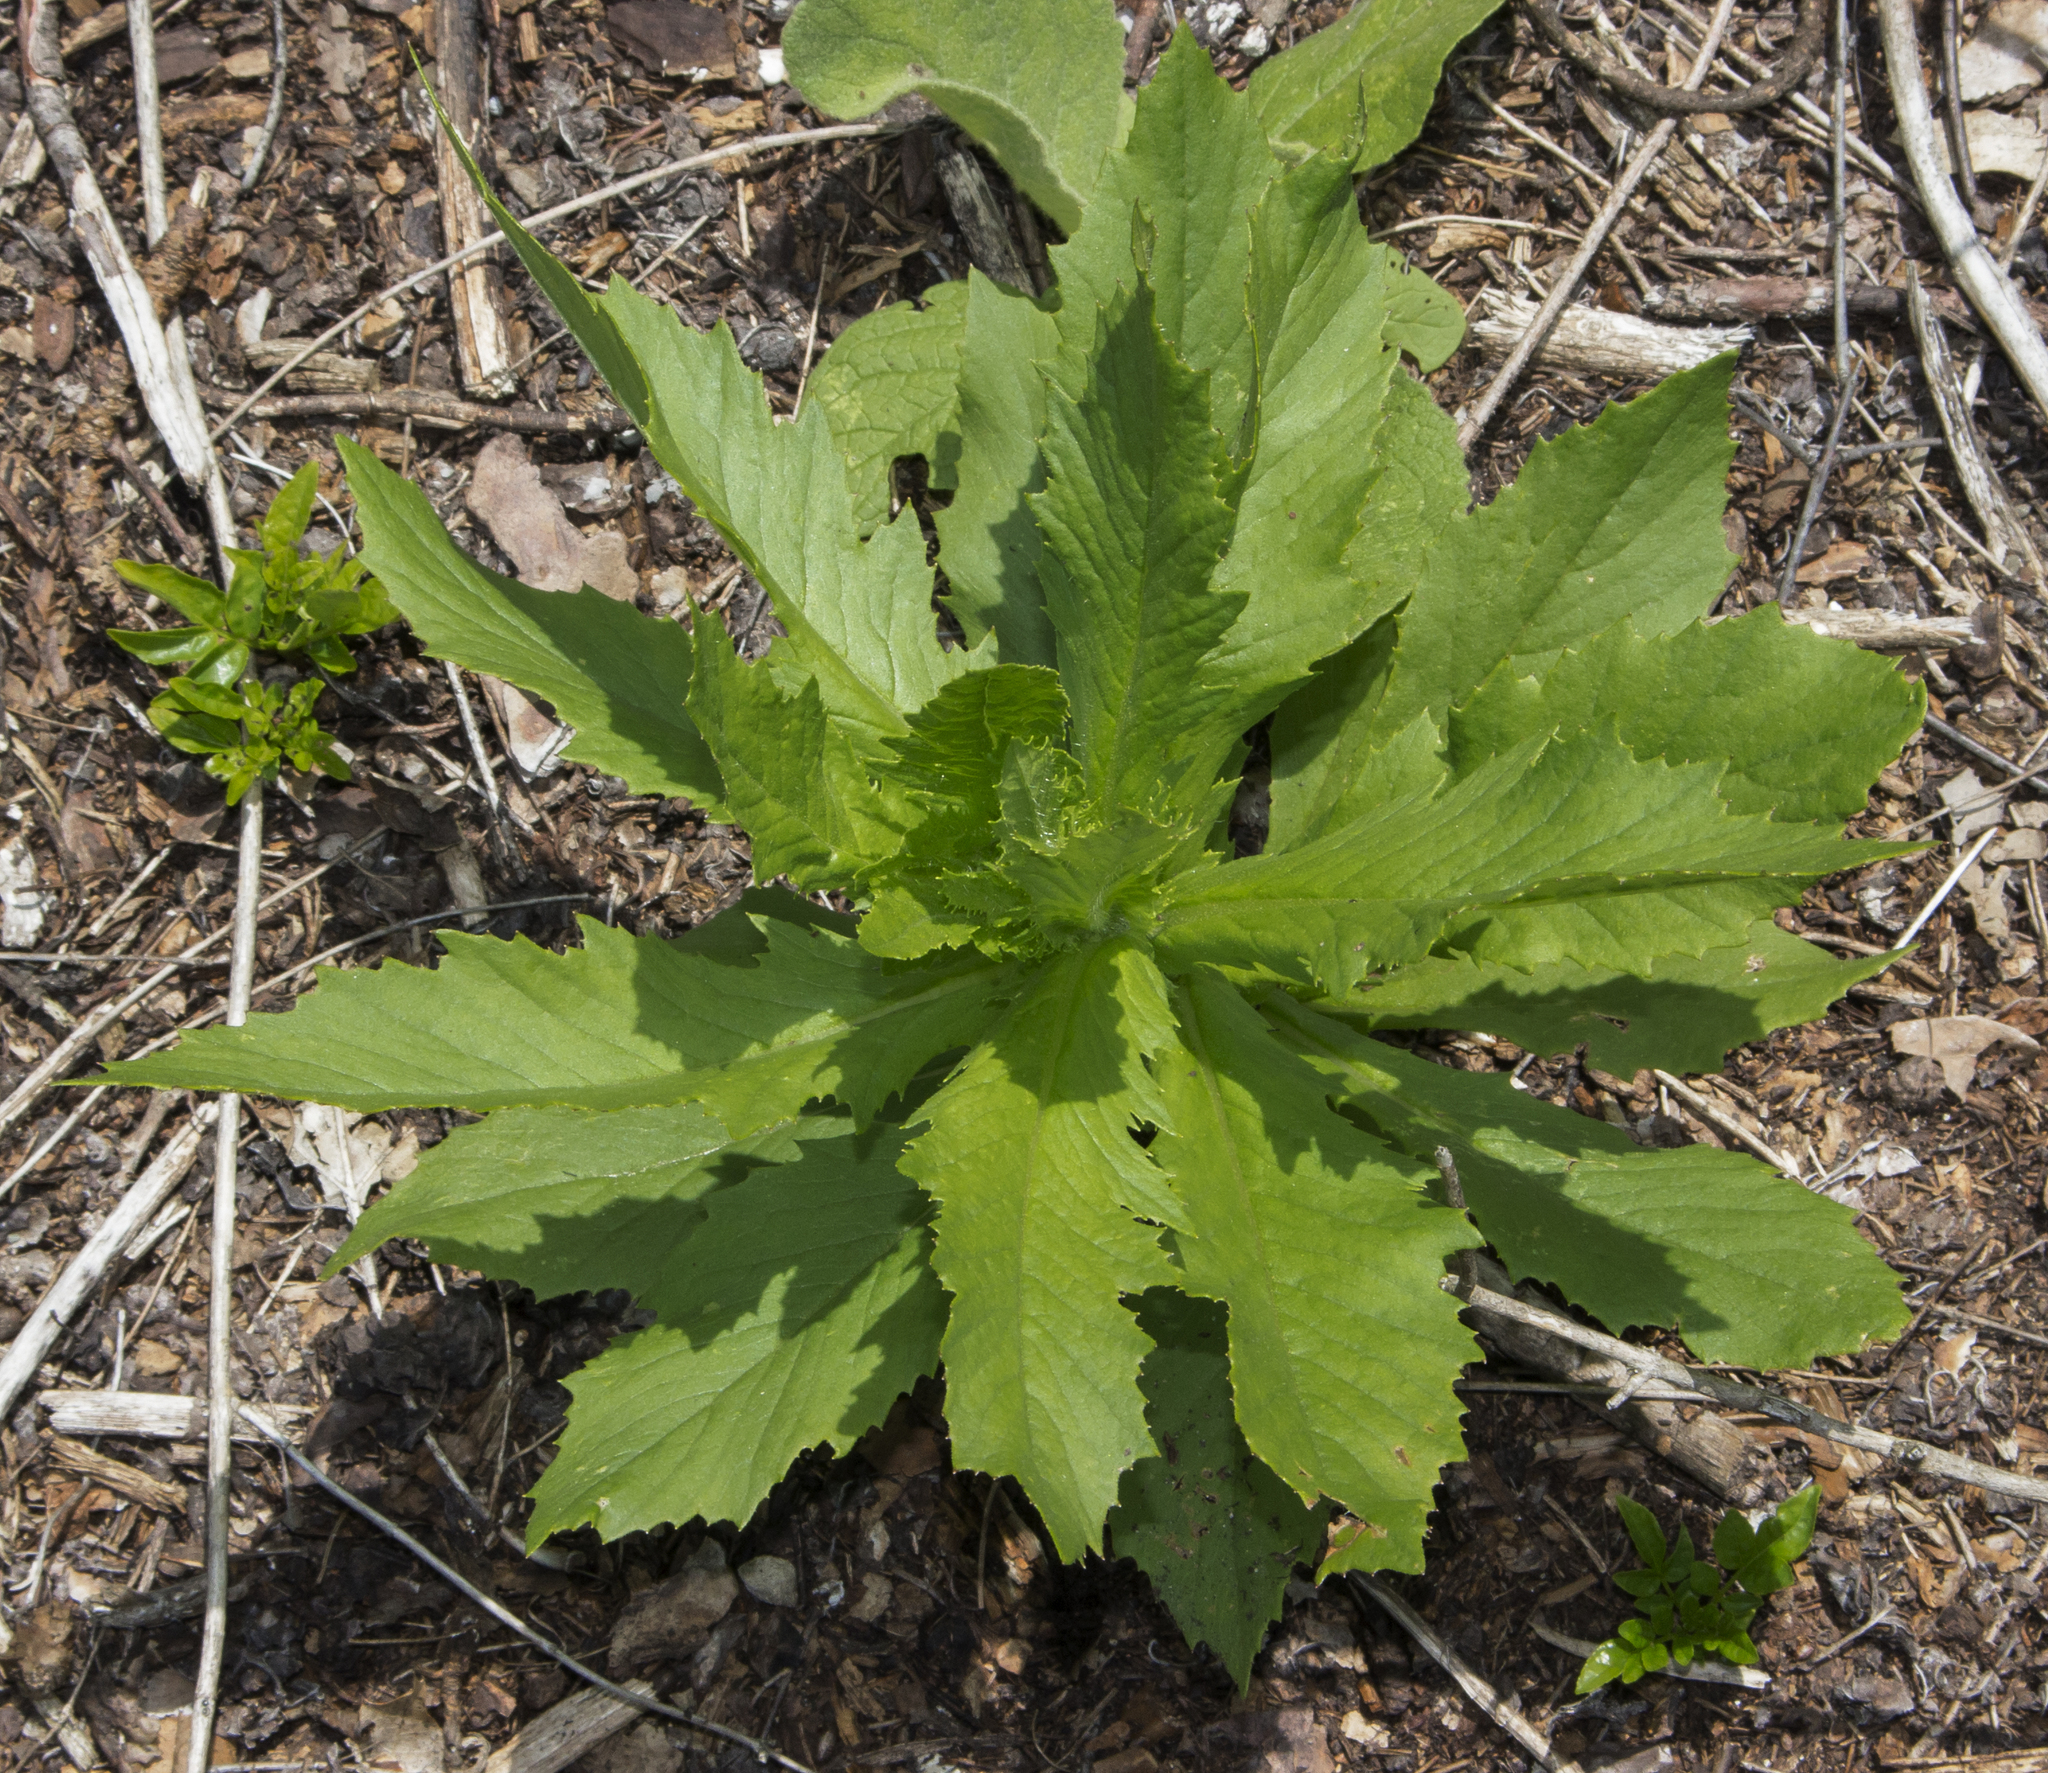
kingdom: Plantae
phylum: Tracheophyta
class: Magnoliopsida
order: Asterales
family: Asteraceae
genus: Erechtites
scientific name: Erechtites hieraciifolius
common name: American burnweed
